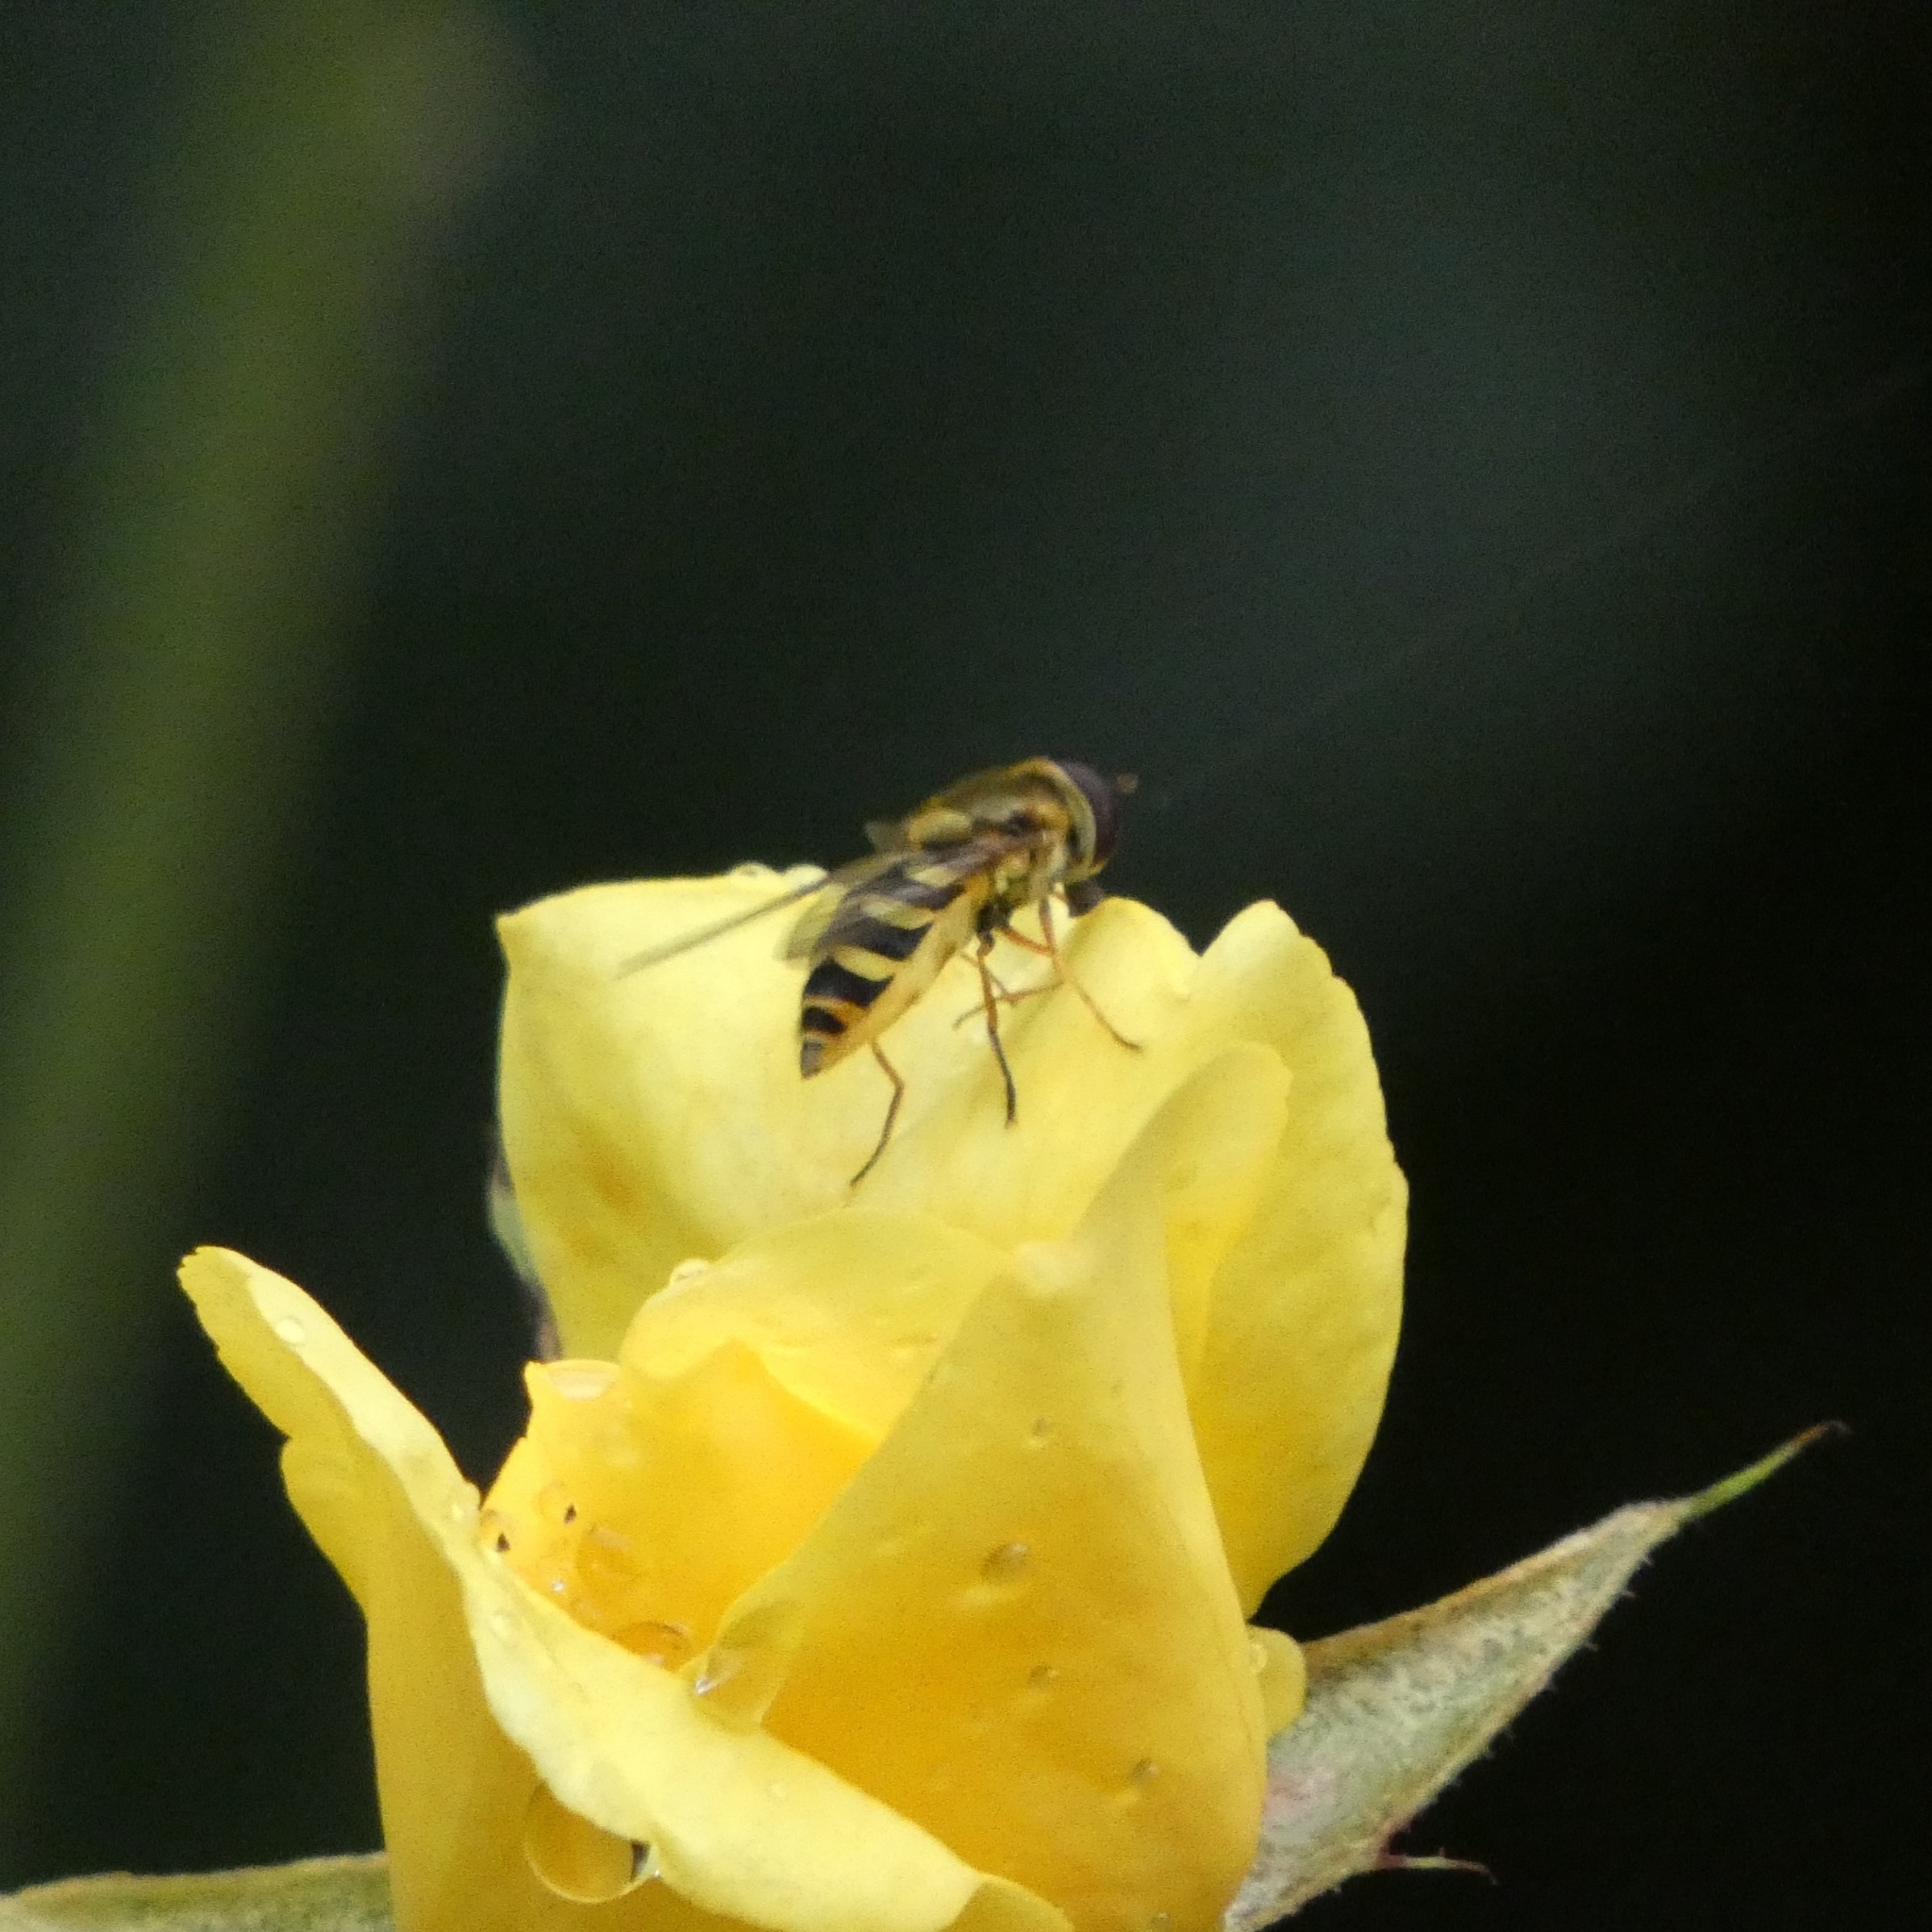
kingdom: Animalia
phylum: Arthropoda
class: Insecta
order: Diptera
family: Syrphidae
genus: Syrphus
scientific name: Syrphus
